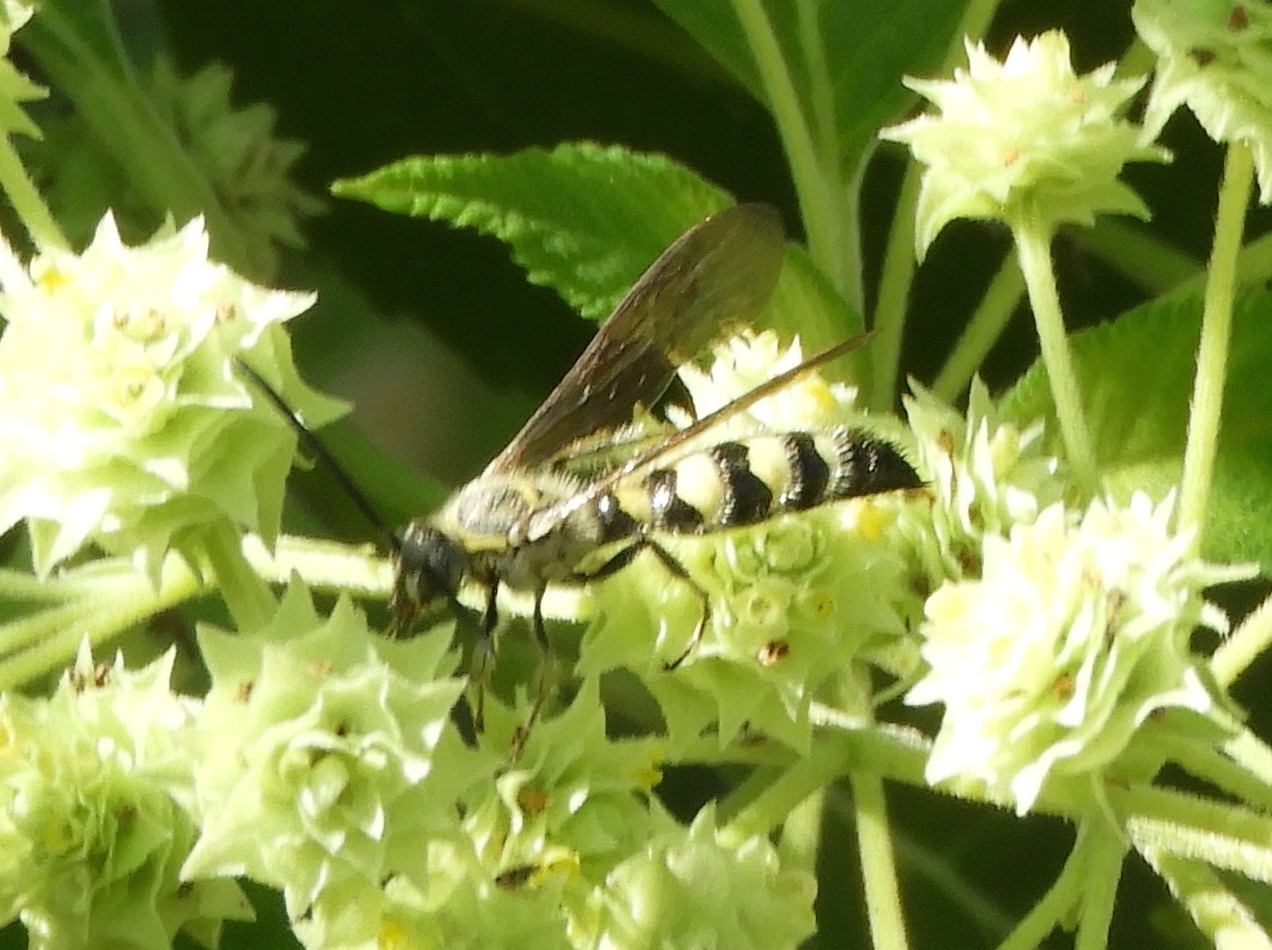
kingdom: Animalia
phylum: Arthropoda
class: Insecta
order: Hymenoptera
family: Scoliidae
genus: Dielis
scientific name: Dielis tolteca
